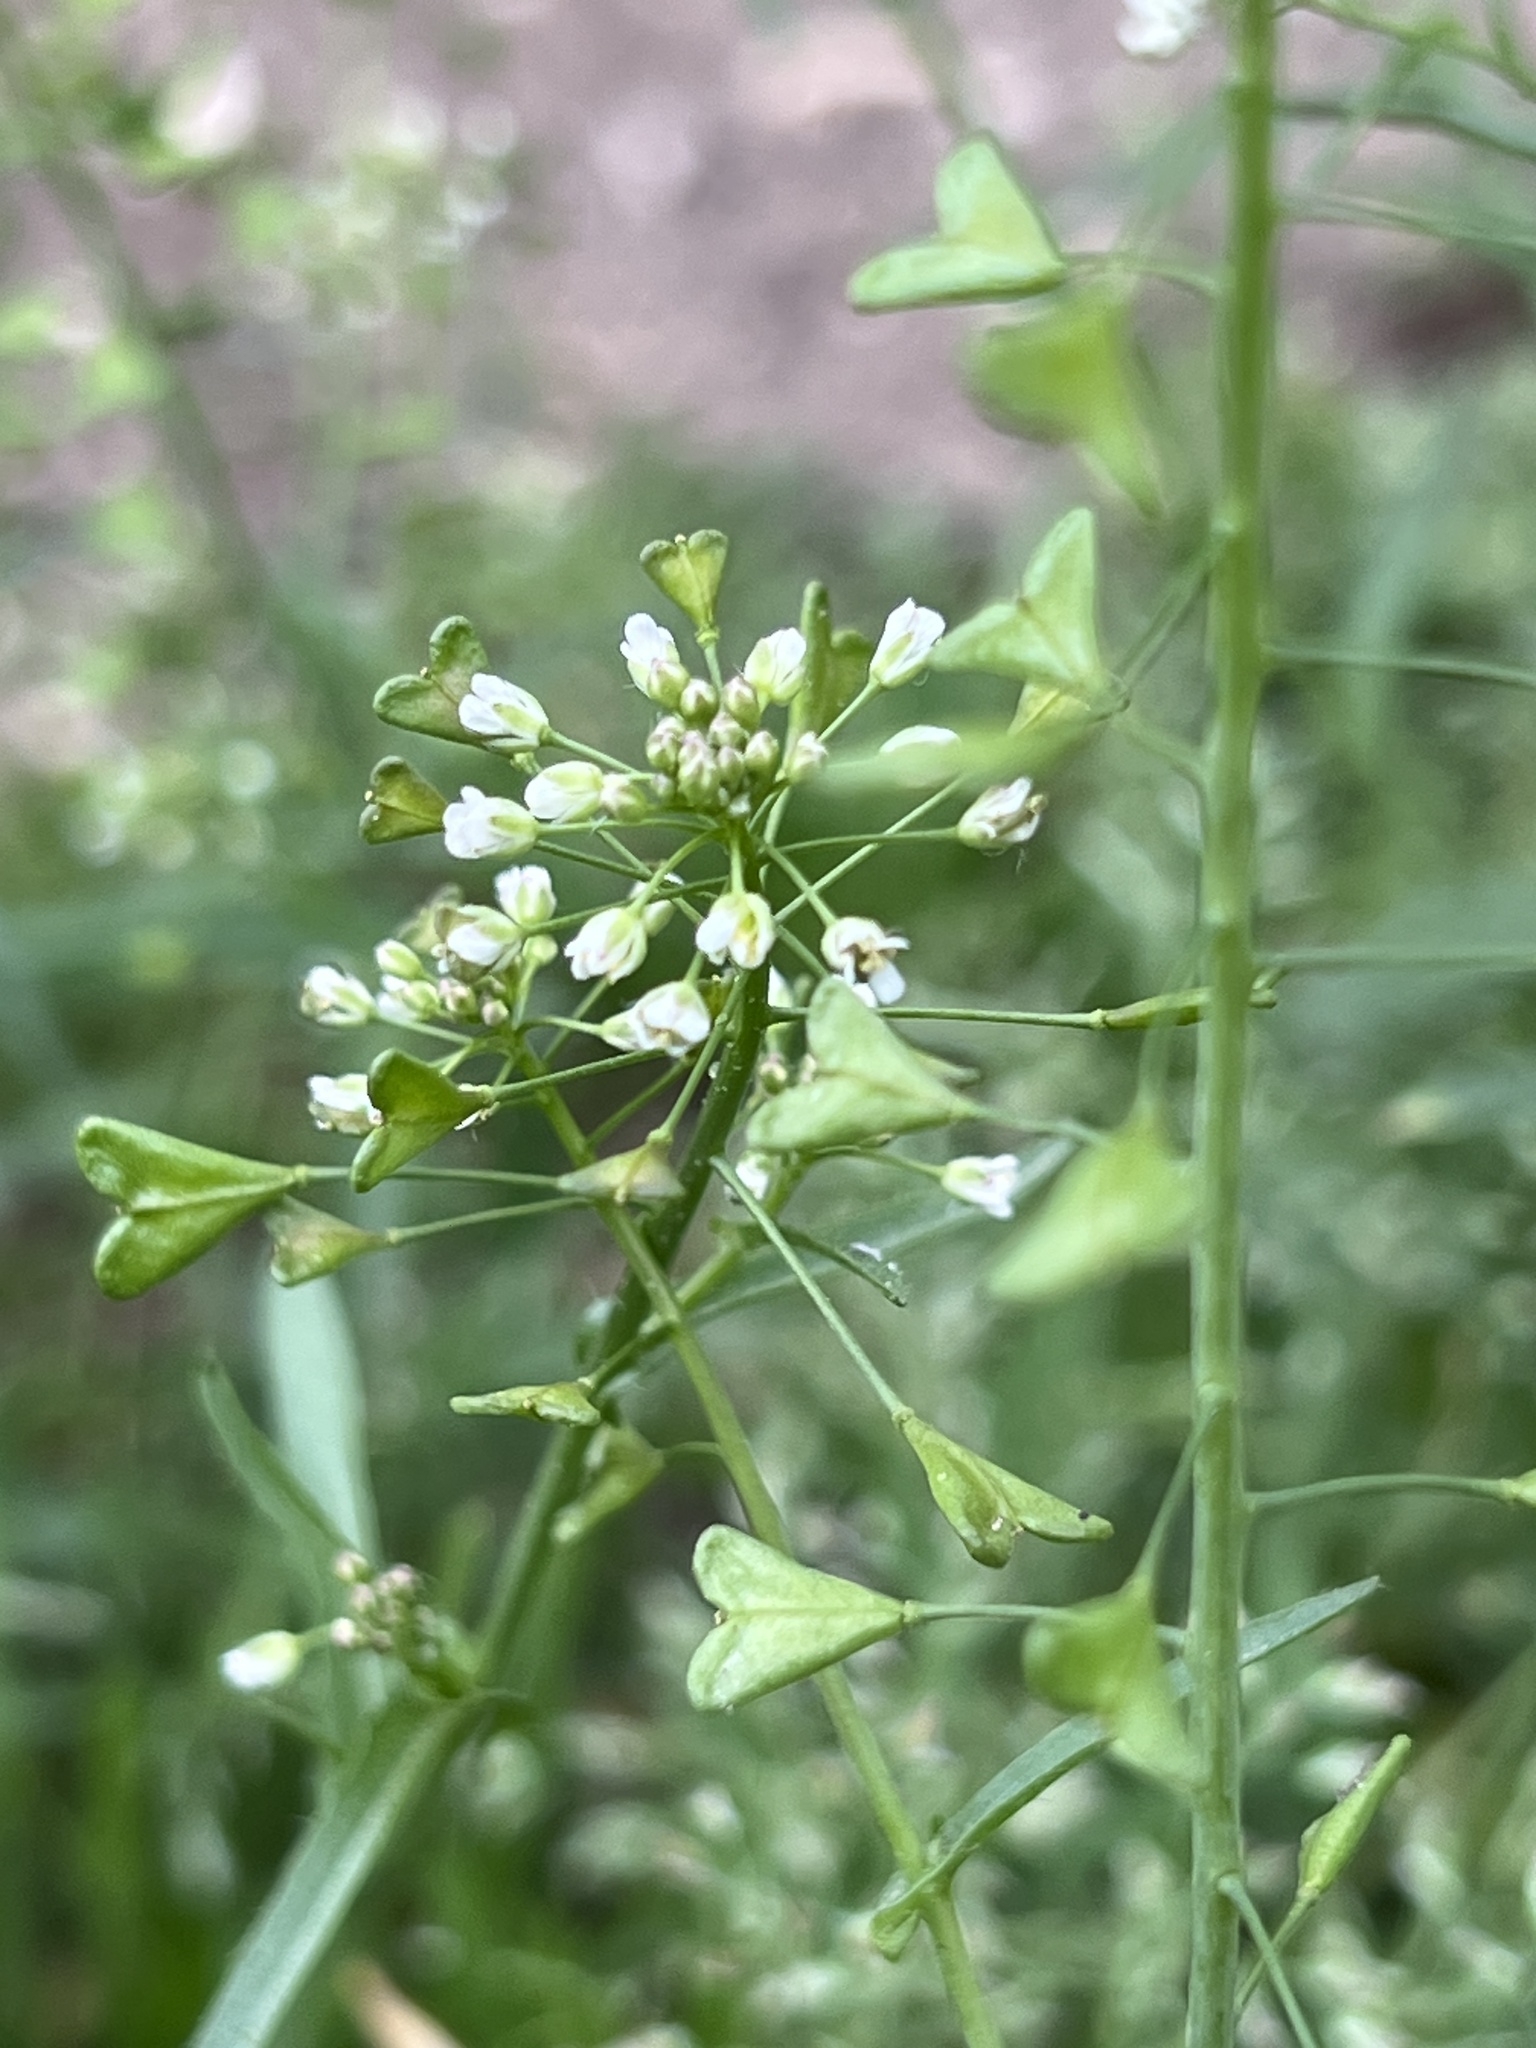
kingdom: Plantae
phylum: Tracheophyta
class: Magnoliopsida
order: Brassicales
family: Brassicaceae
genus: Capsella
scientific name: Capsella bursa-pastoris
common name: Shepherd's purse
